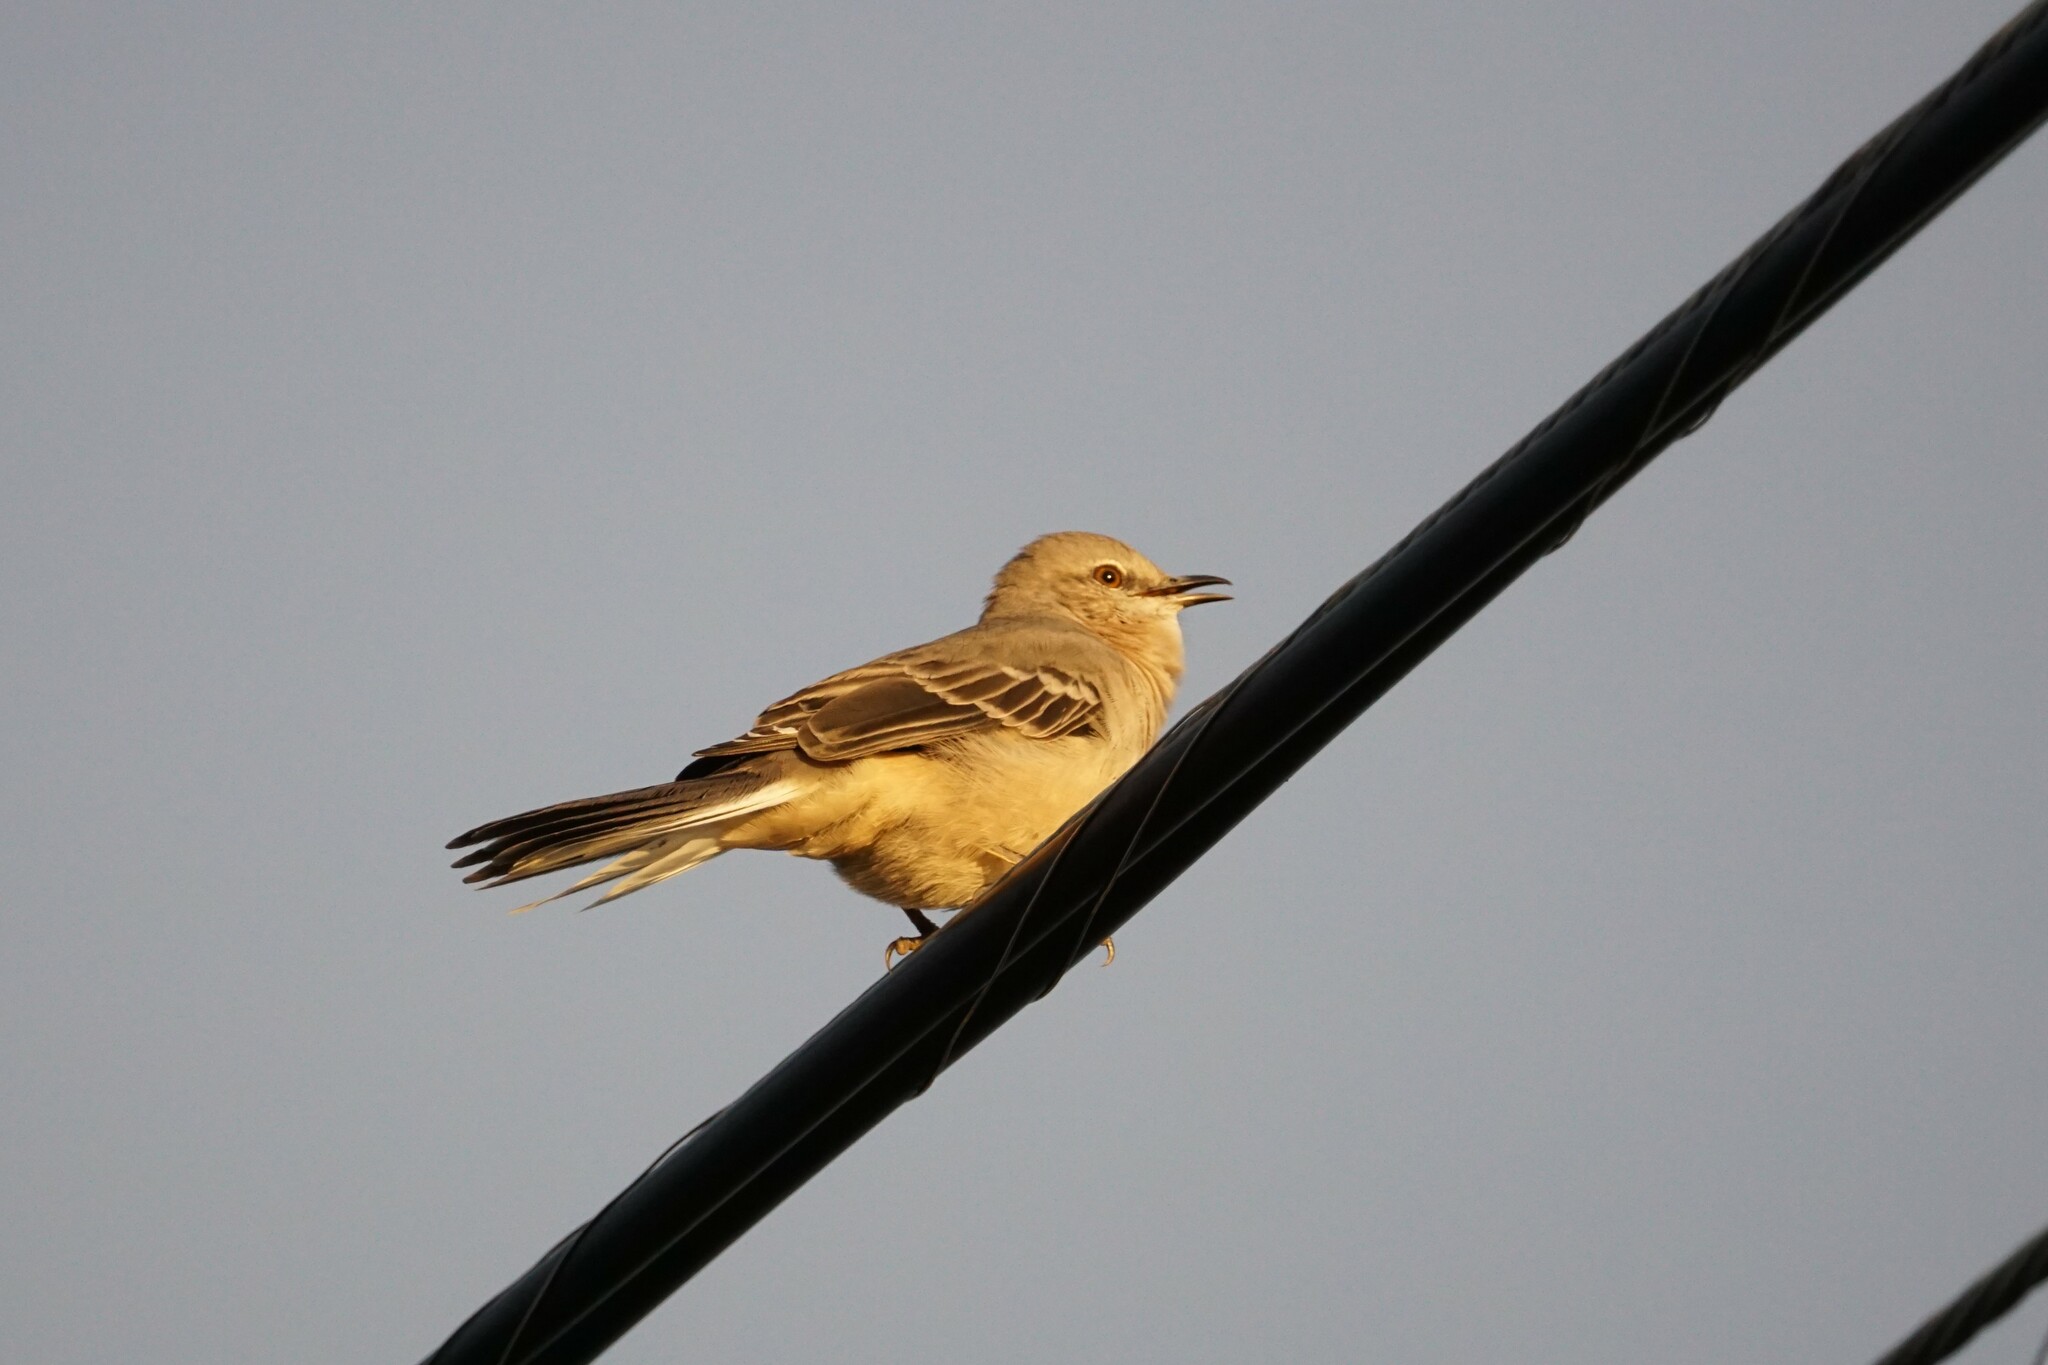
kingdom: Animalia
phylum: Chordata
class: Aves
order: Passeriformes
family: Mimidae
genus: Mimus
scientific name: Mimus polyglottos
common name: Northern mockingbird
